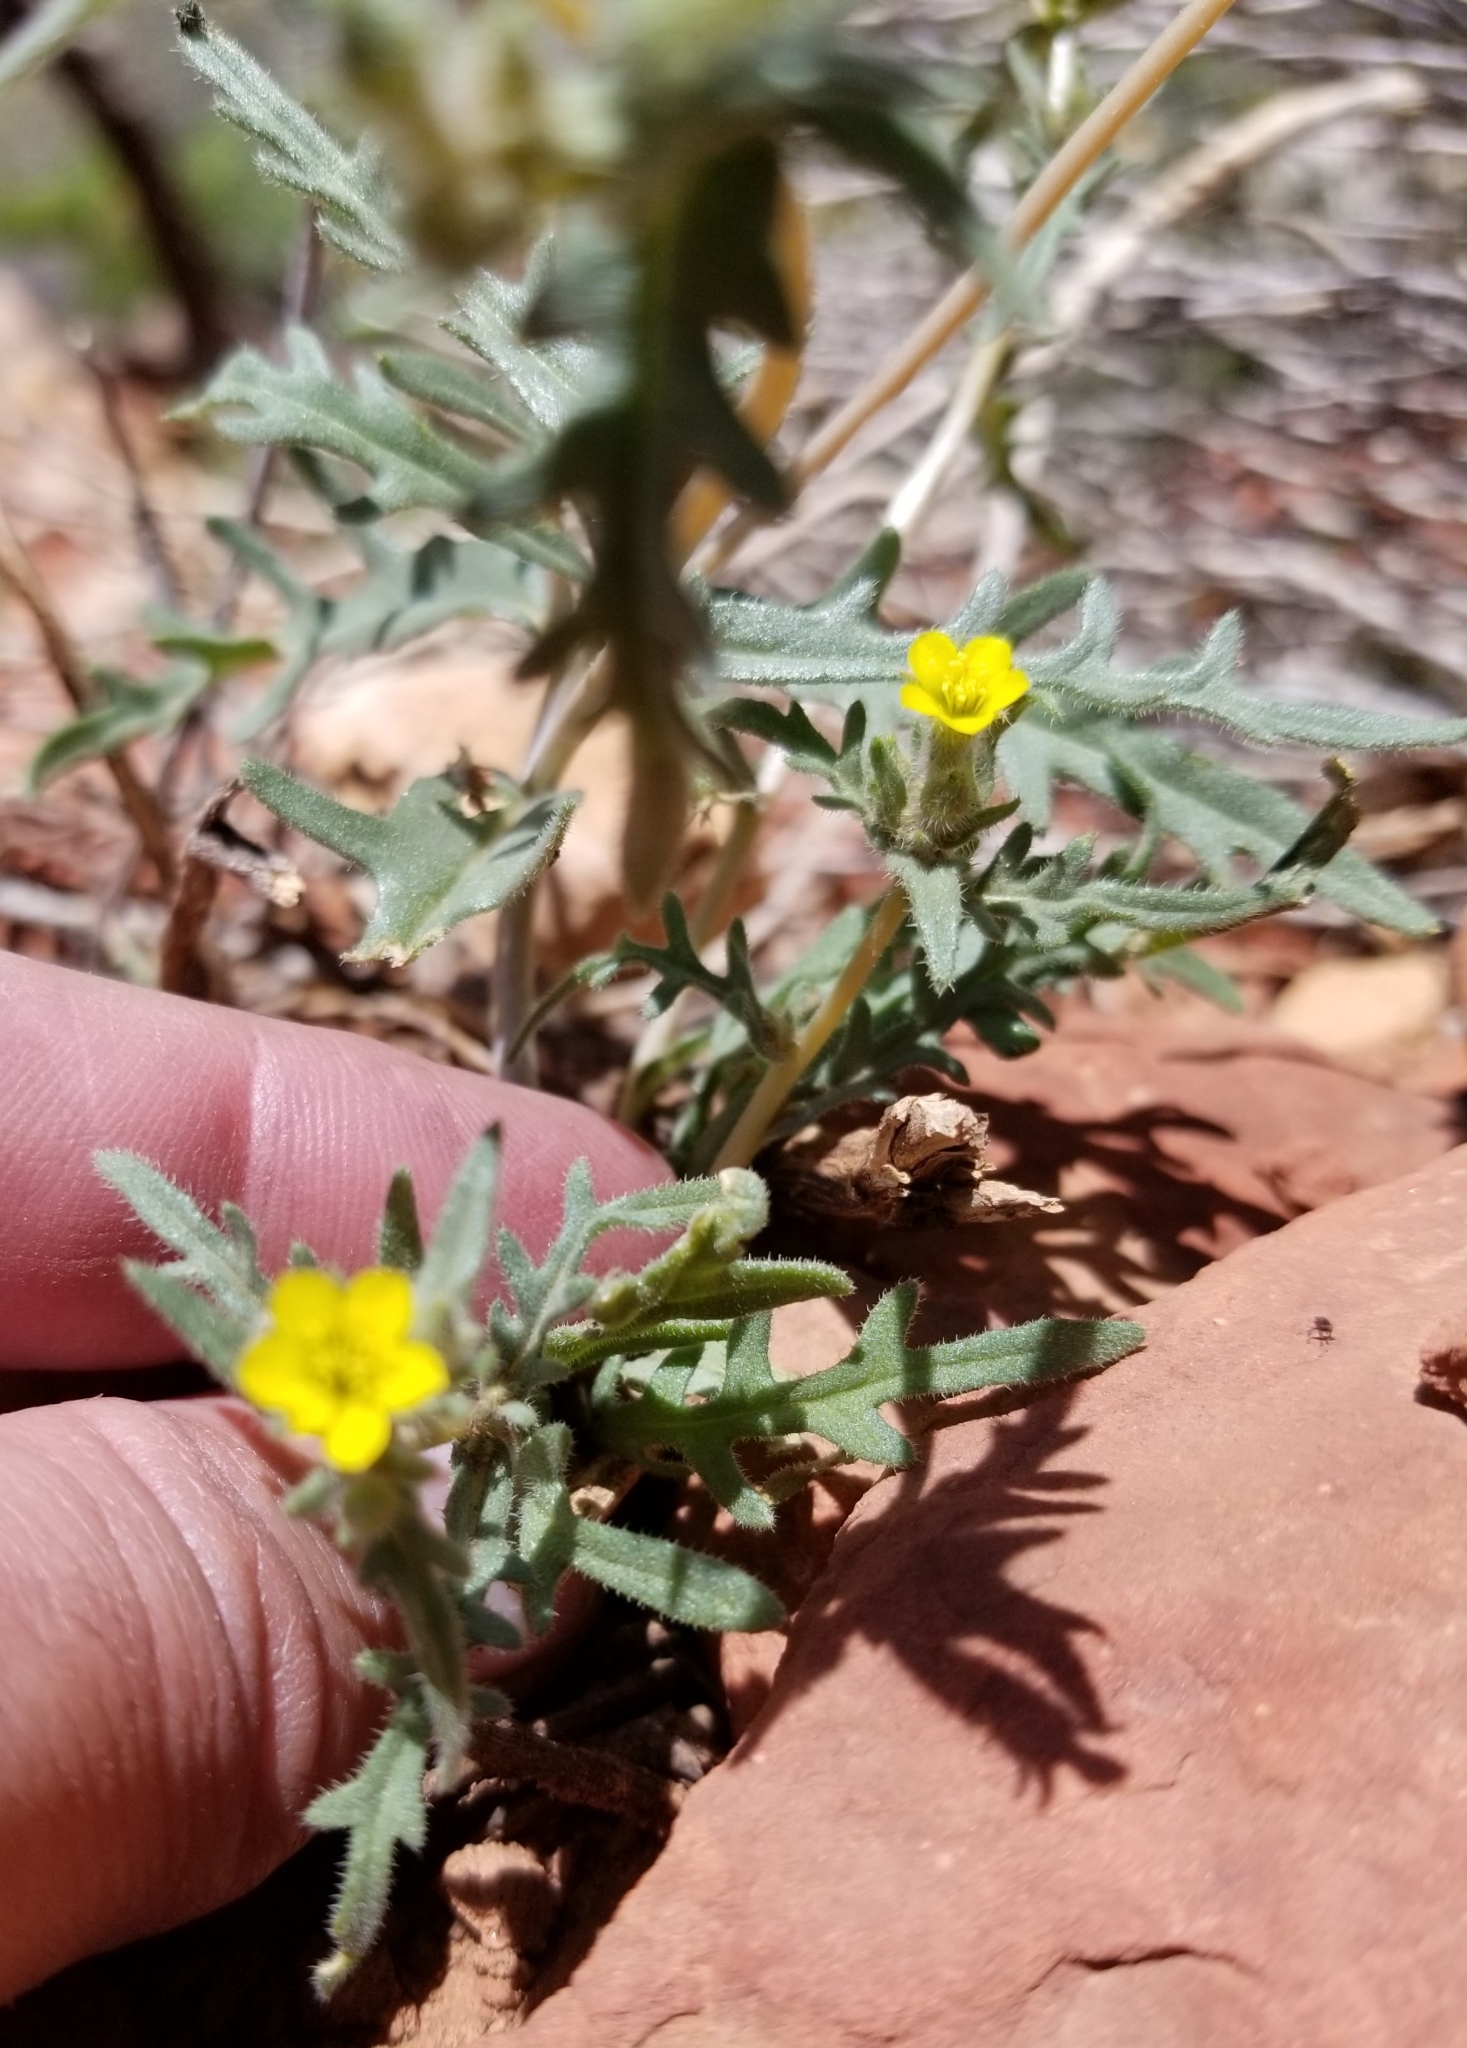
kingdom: Plantae
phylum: Tracheophyta
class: Magnoliopsida
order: Cornales
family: Loasaceae
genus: Mentzelia
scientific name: Mentzelia albicaulis
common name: White-stem blazingstar
